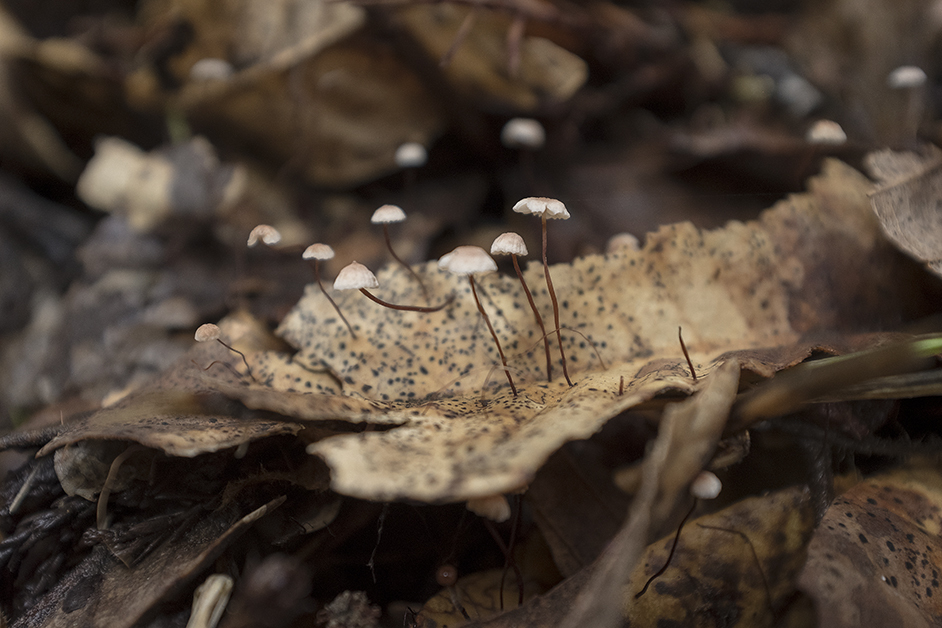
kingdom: Fungi
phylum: Basidiomycota
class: Agaricomycetes
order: Agaricales
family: Omphalotaceae
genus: Collybiopsis
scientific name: Collybiopsis quercophila
